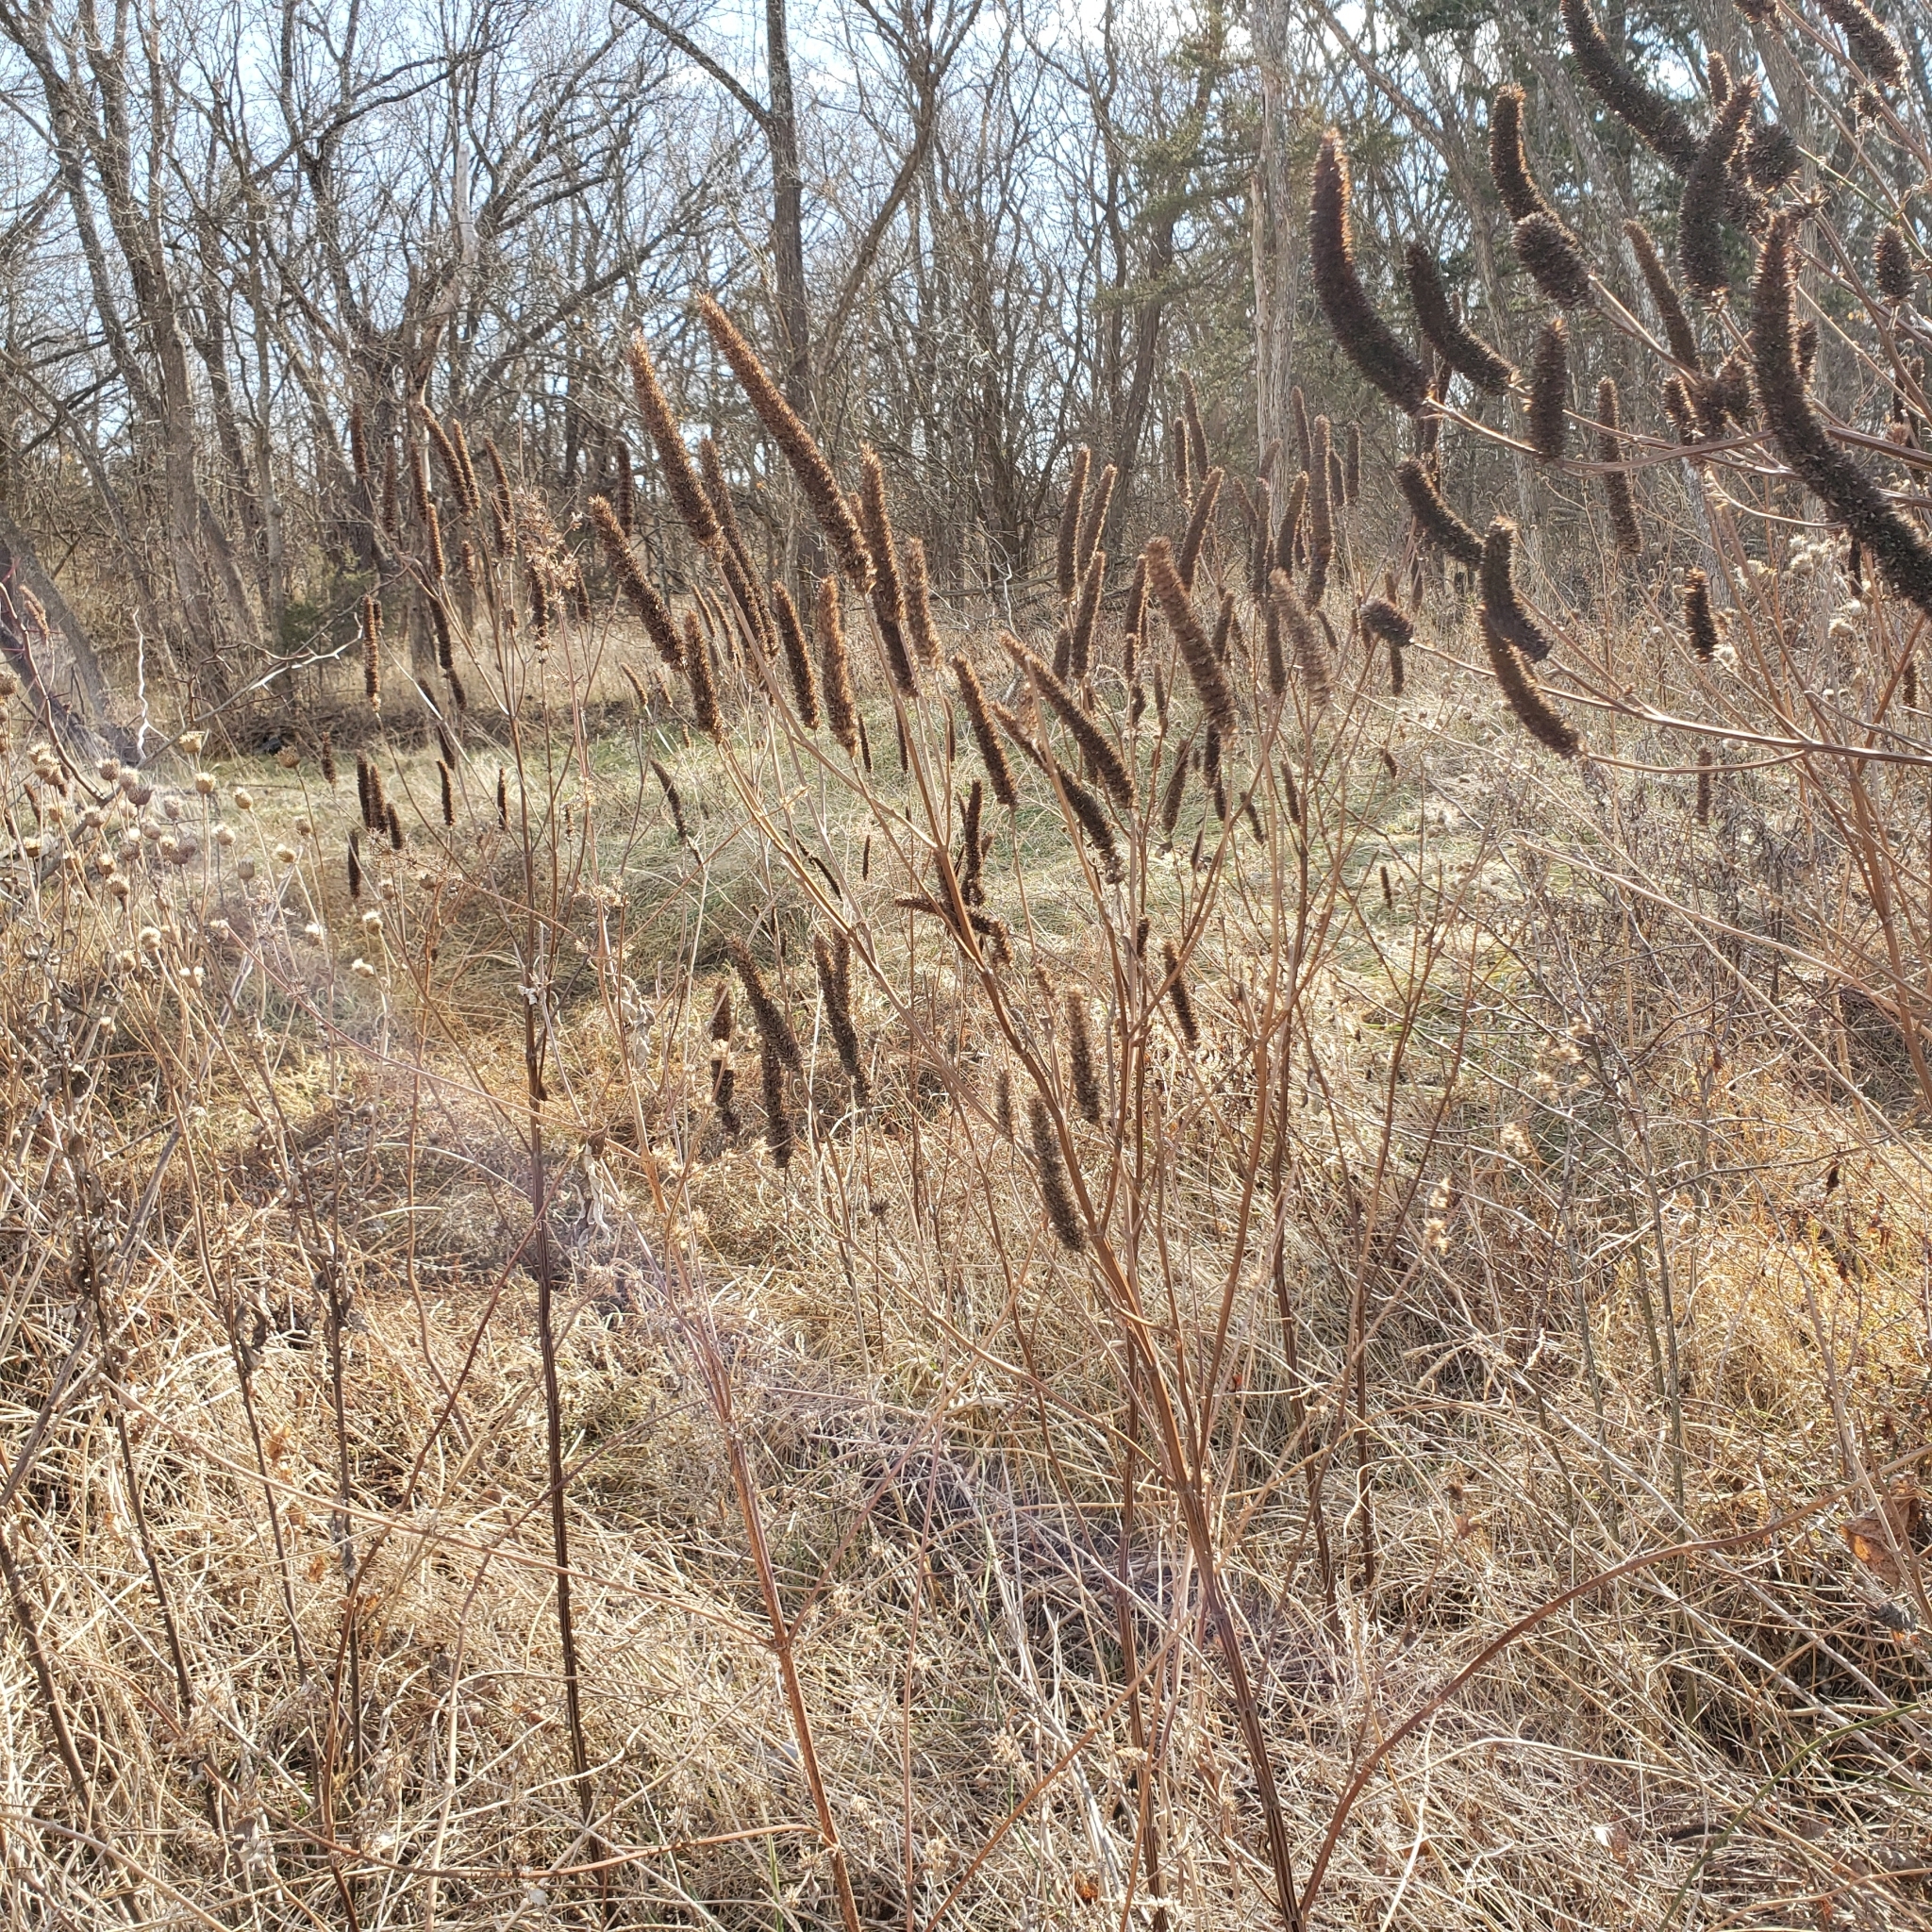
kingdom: Plantae
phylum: Tracheophyta
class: Magnoliopsida
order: Lamiales
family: Lamiaceae
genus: Agastache
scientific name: Agastache nepetoides
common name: Catnip giant hyssop
